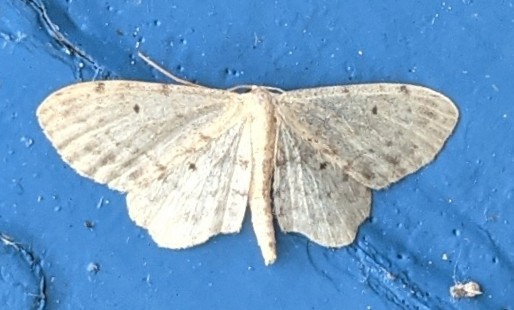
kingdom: Animalia
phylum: Arthropoda
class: Insecta
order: Lepidoptera
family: Geometridae
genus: Idaea
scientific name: Idaea dimidiata
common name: Single-dotted wave
